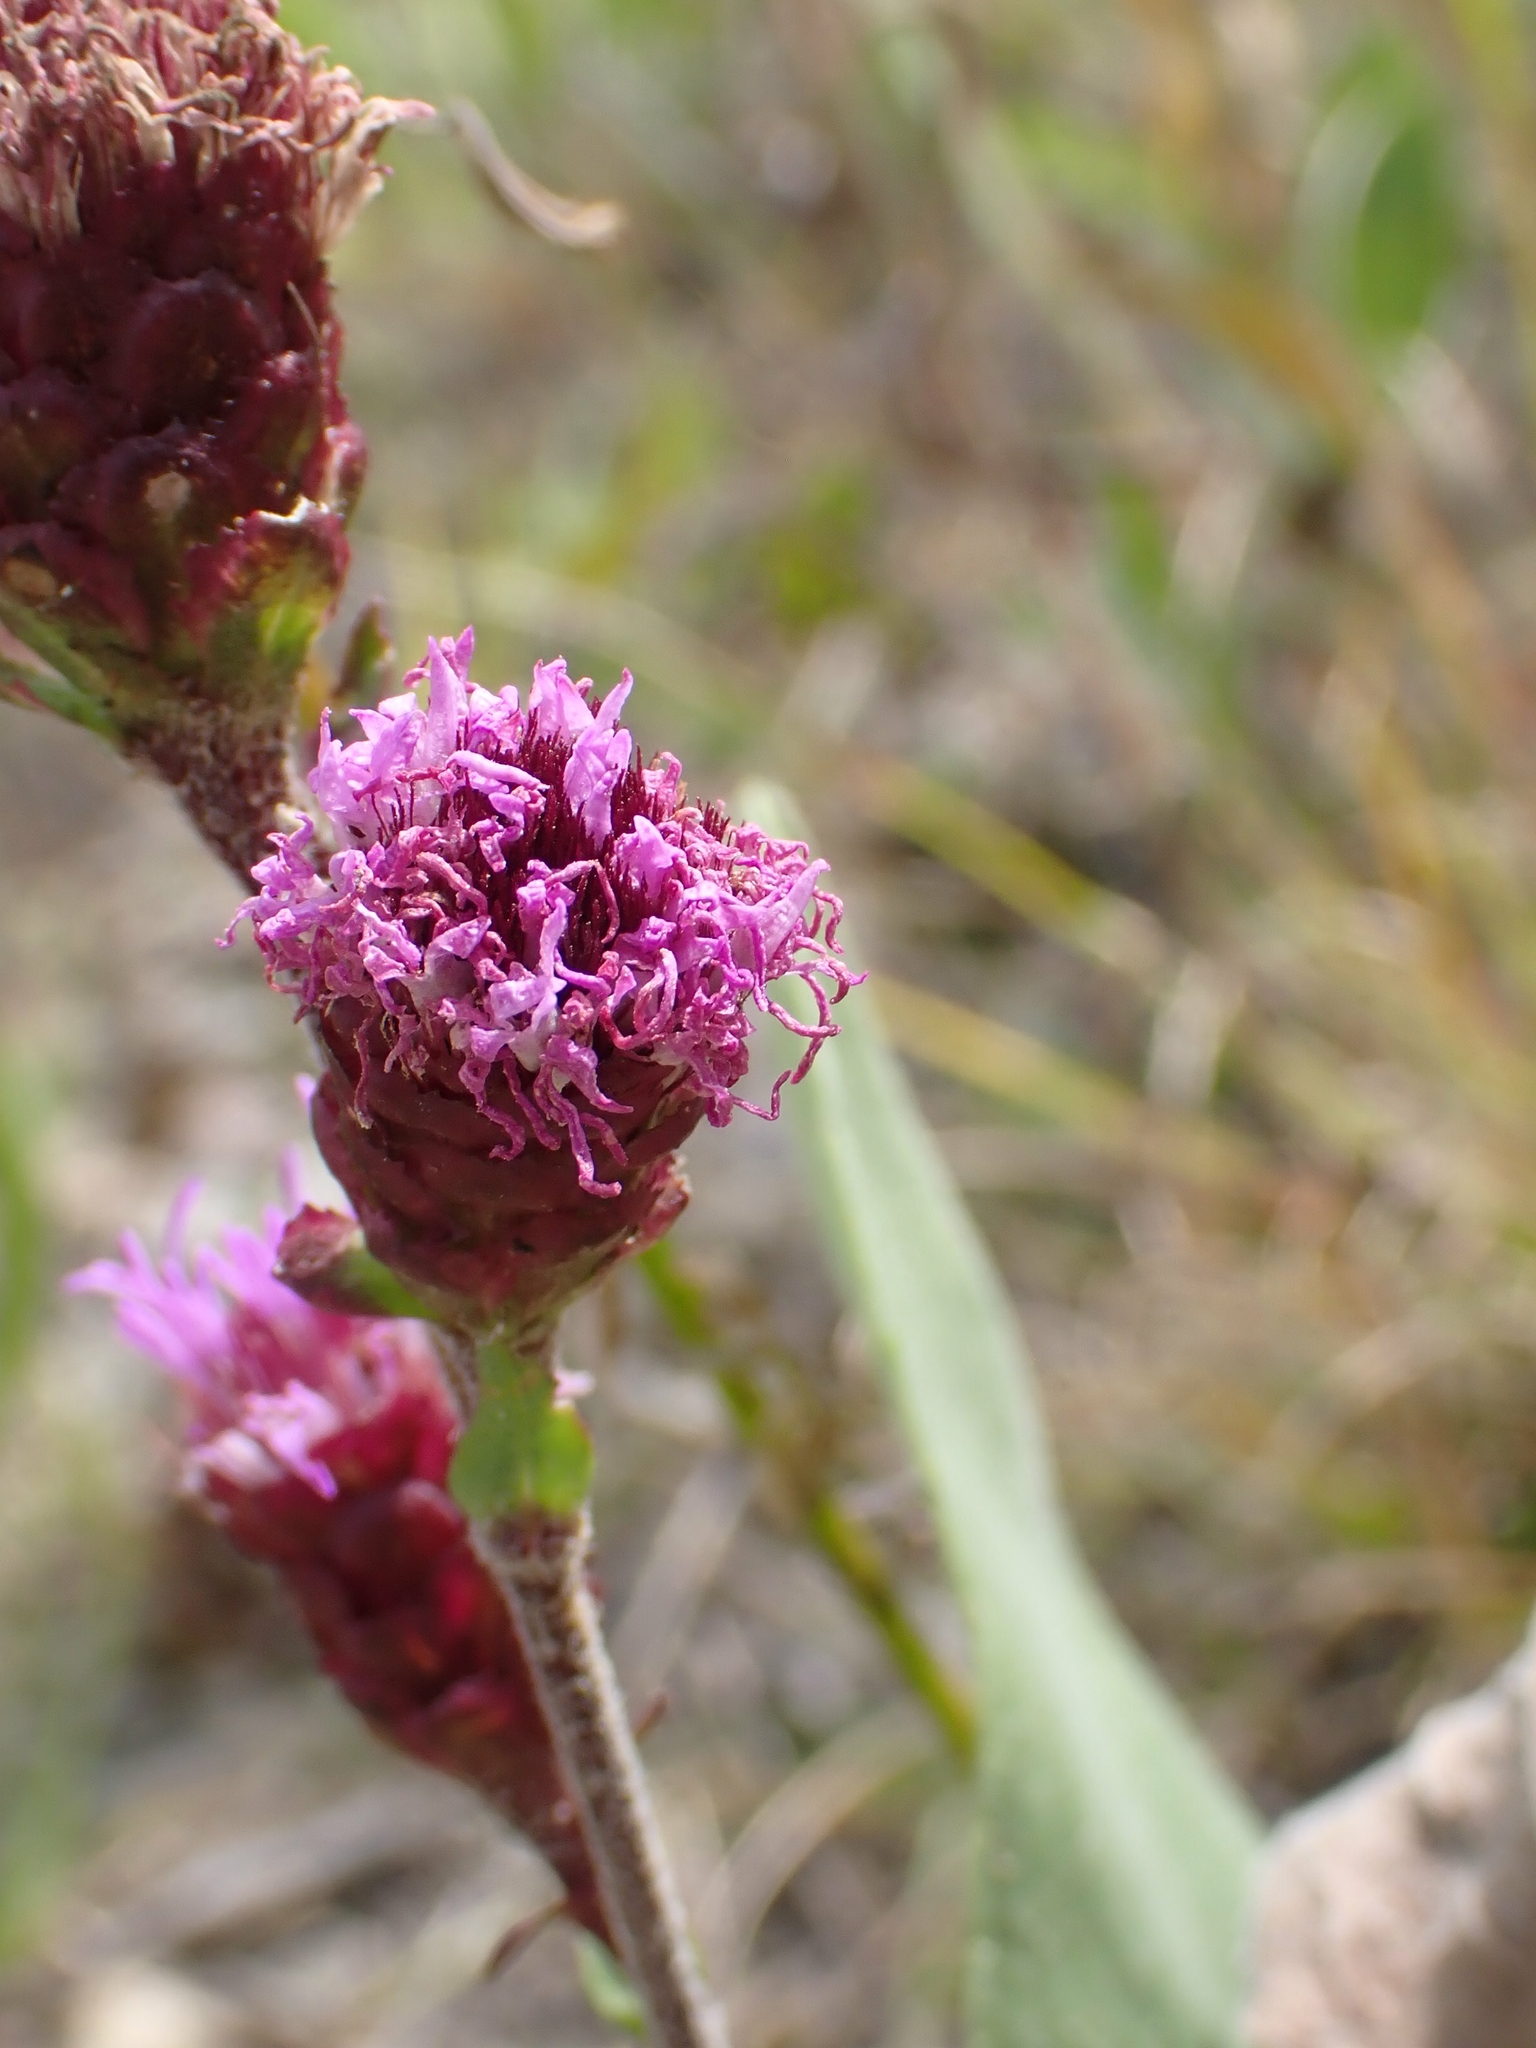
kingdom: Plantae
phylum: Tracheophyta
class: Magnoliopsida
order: Asterales
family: Asteraceae
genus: Liatris
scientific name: Liatris ligulistylis
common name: Northern plains gayfeather
